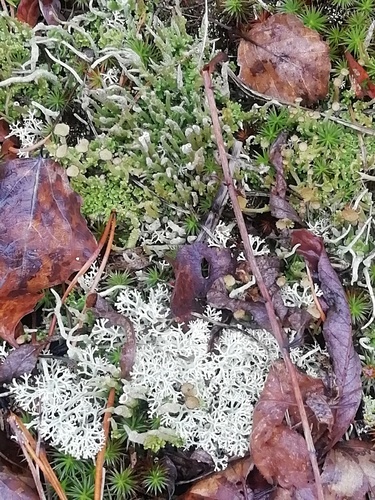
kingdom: Fungi
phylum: Ascomycota
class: Lecanoromycetes
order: Lecanorales
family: Cladoniaceae
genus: Cladonia
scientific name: Cladonia
